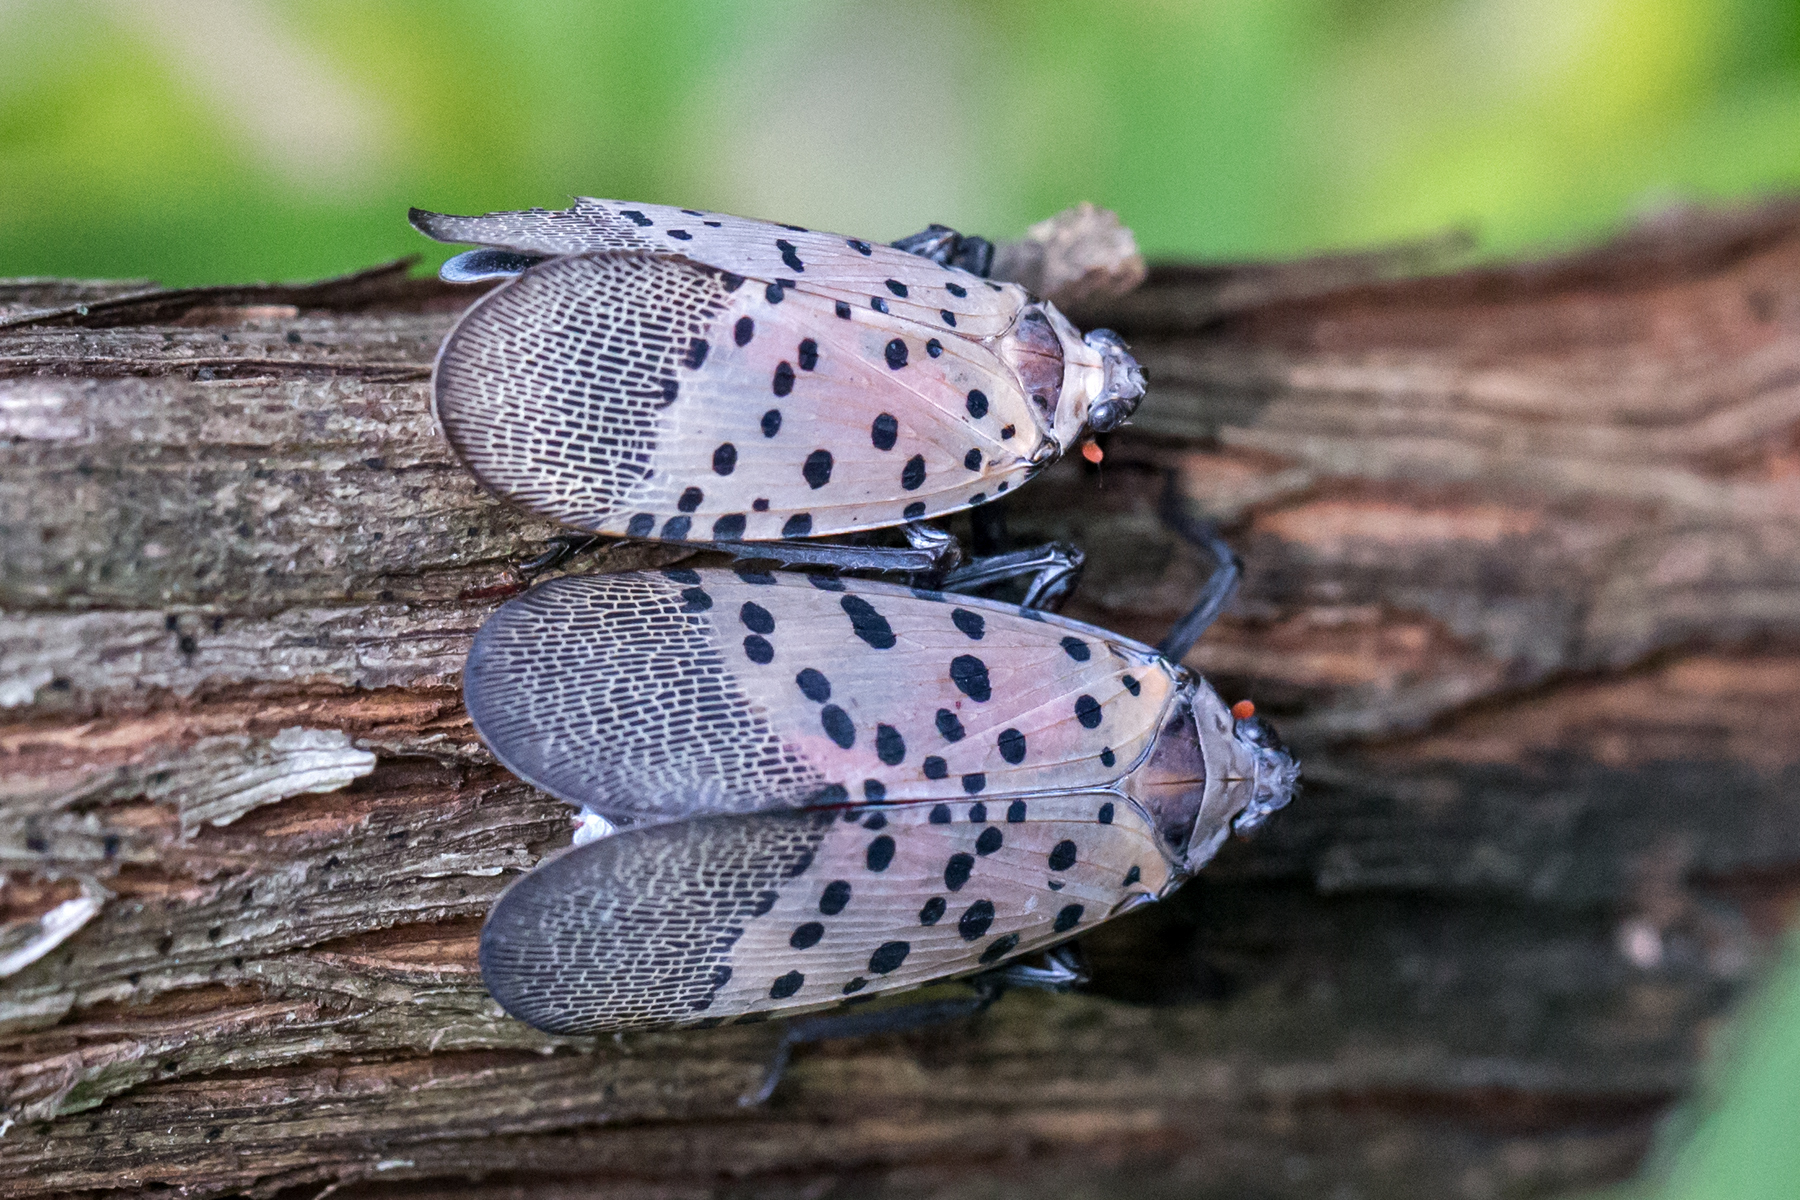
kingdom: Animalia
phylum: Arthropoda
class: Insecta
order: Hemiptera
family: Fulgoridae
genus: Lycorma
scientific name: Lycorma delicatula
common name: Spotted lanternfly
